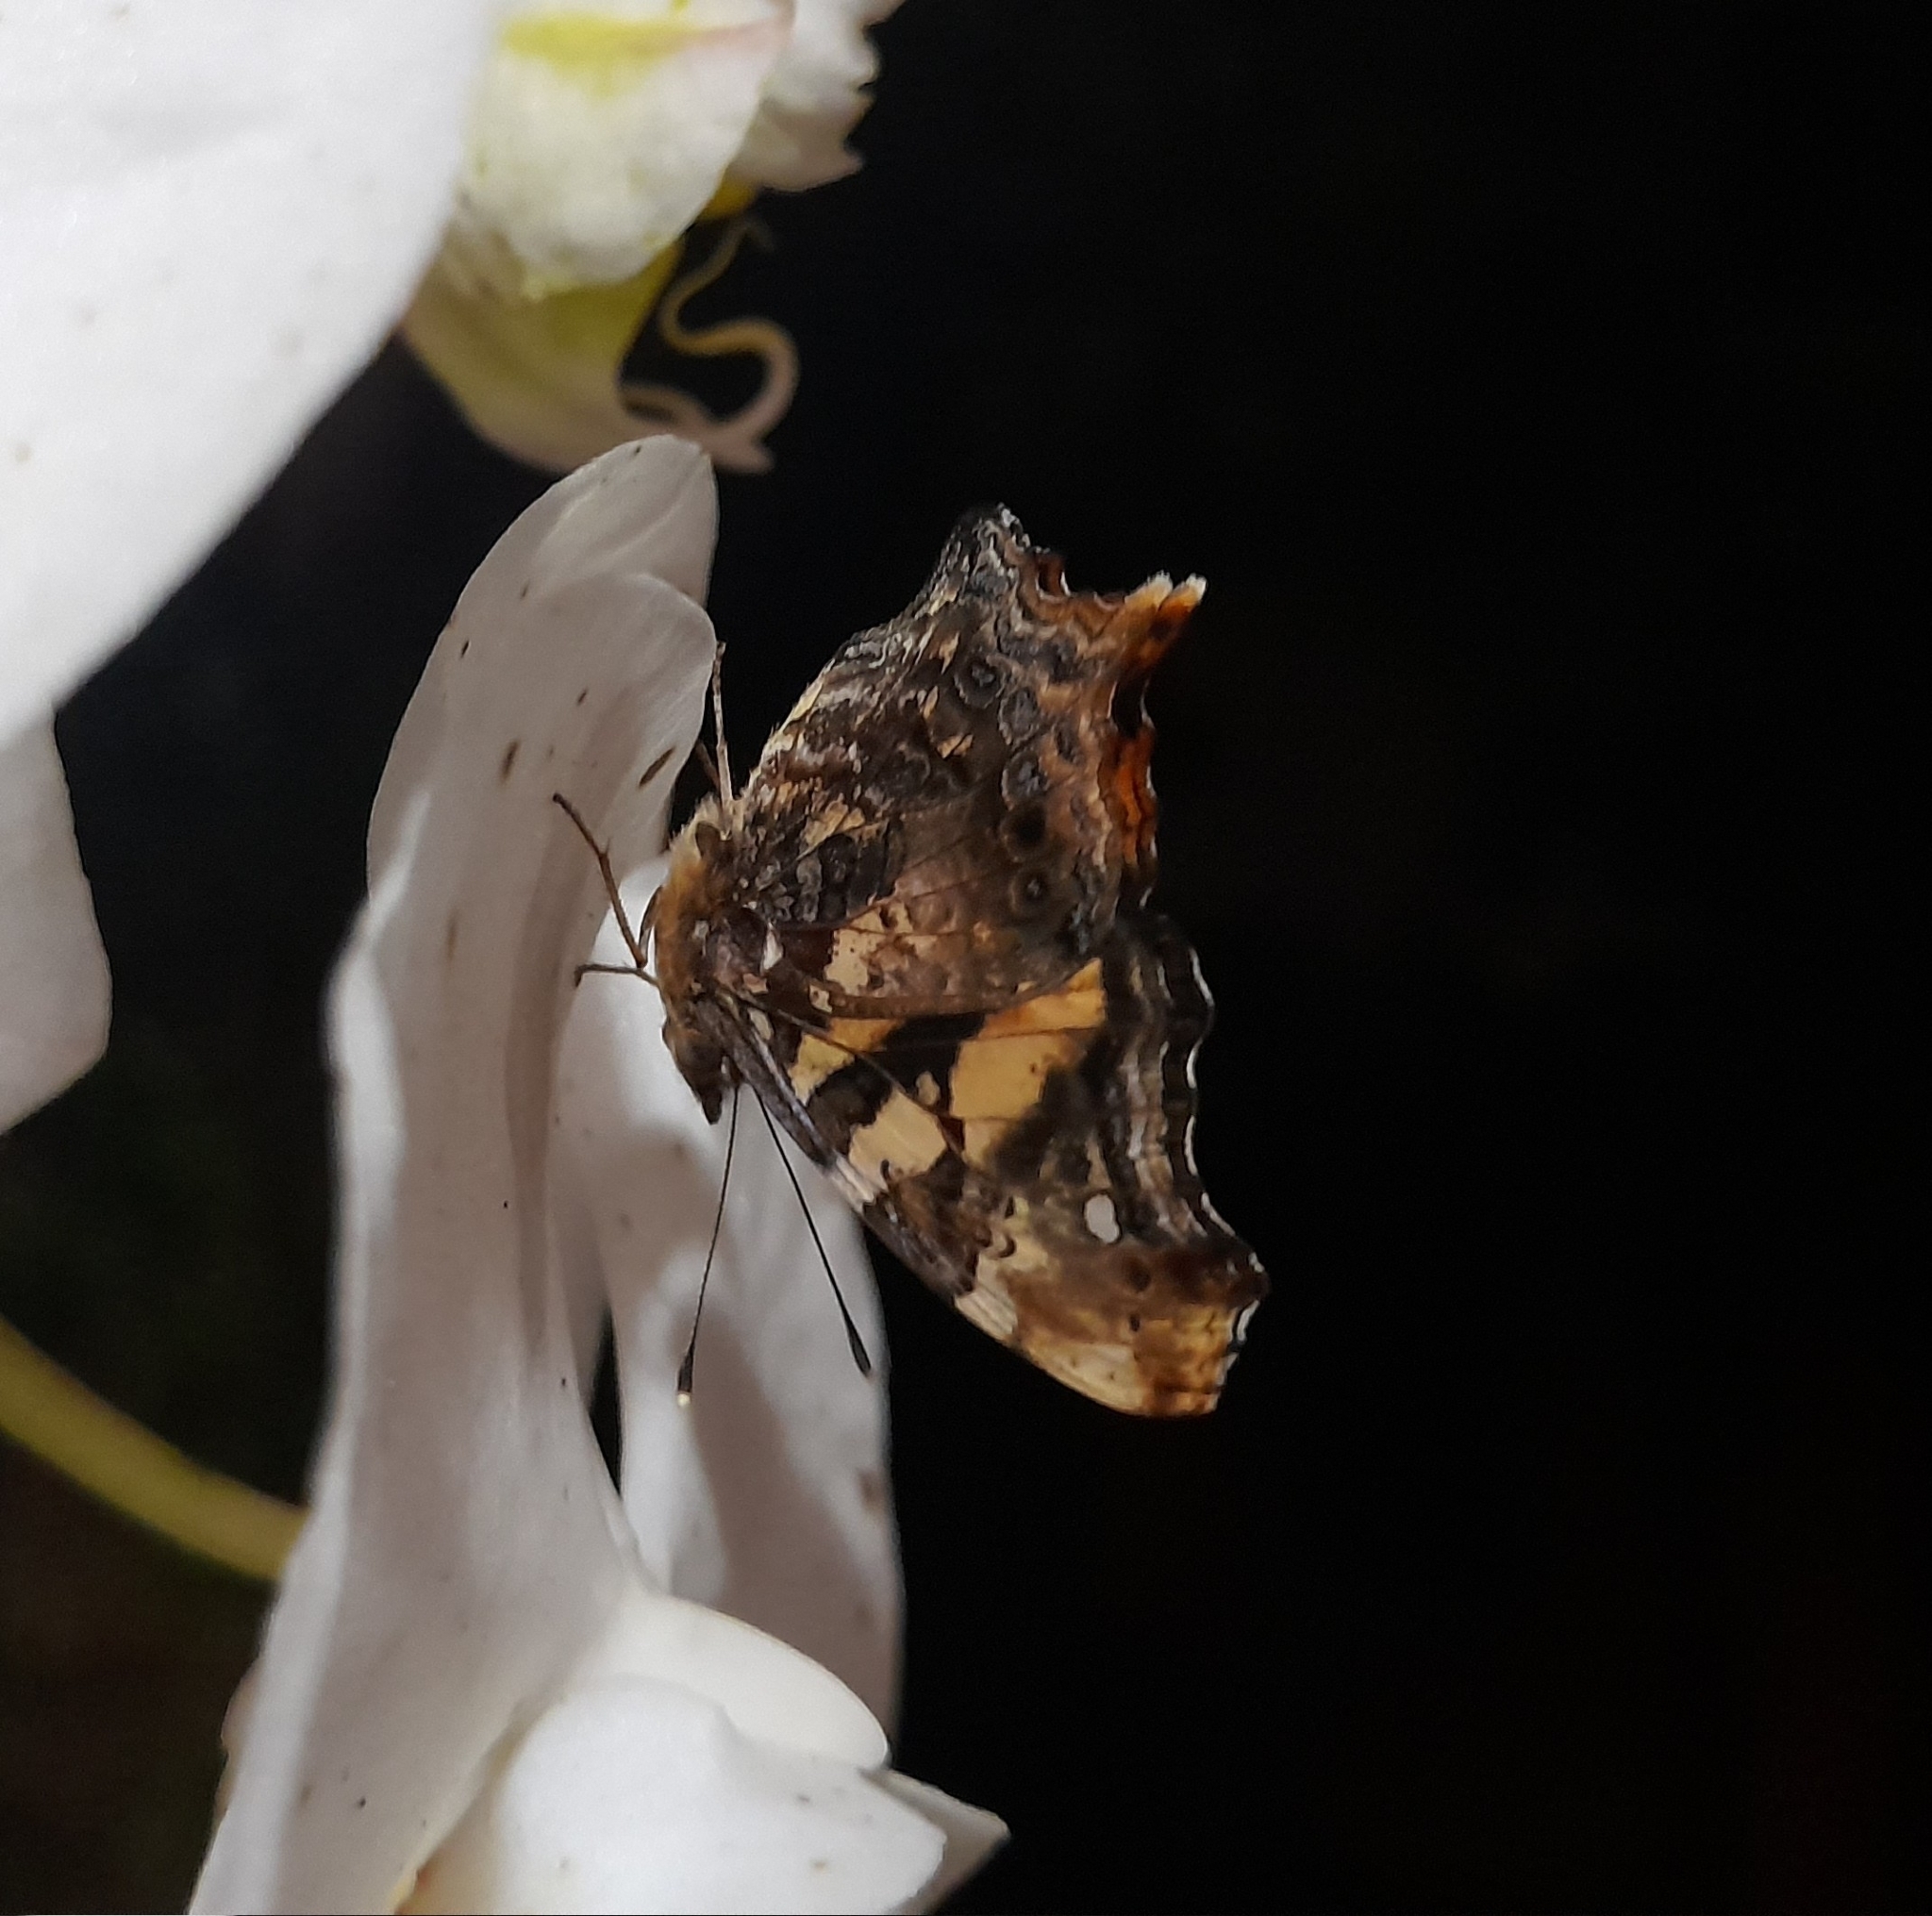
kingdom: Animalia
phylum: Arthropoda
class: Insecta
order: Lepidoptera
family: Nymphalidae
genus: Hypanartia
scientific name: Hypanartia bella
